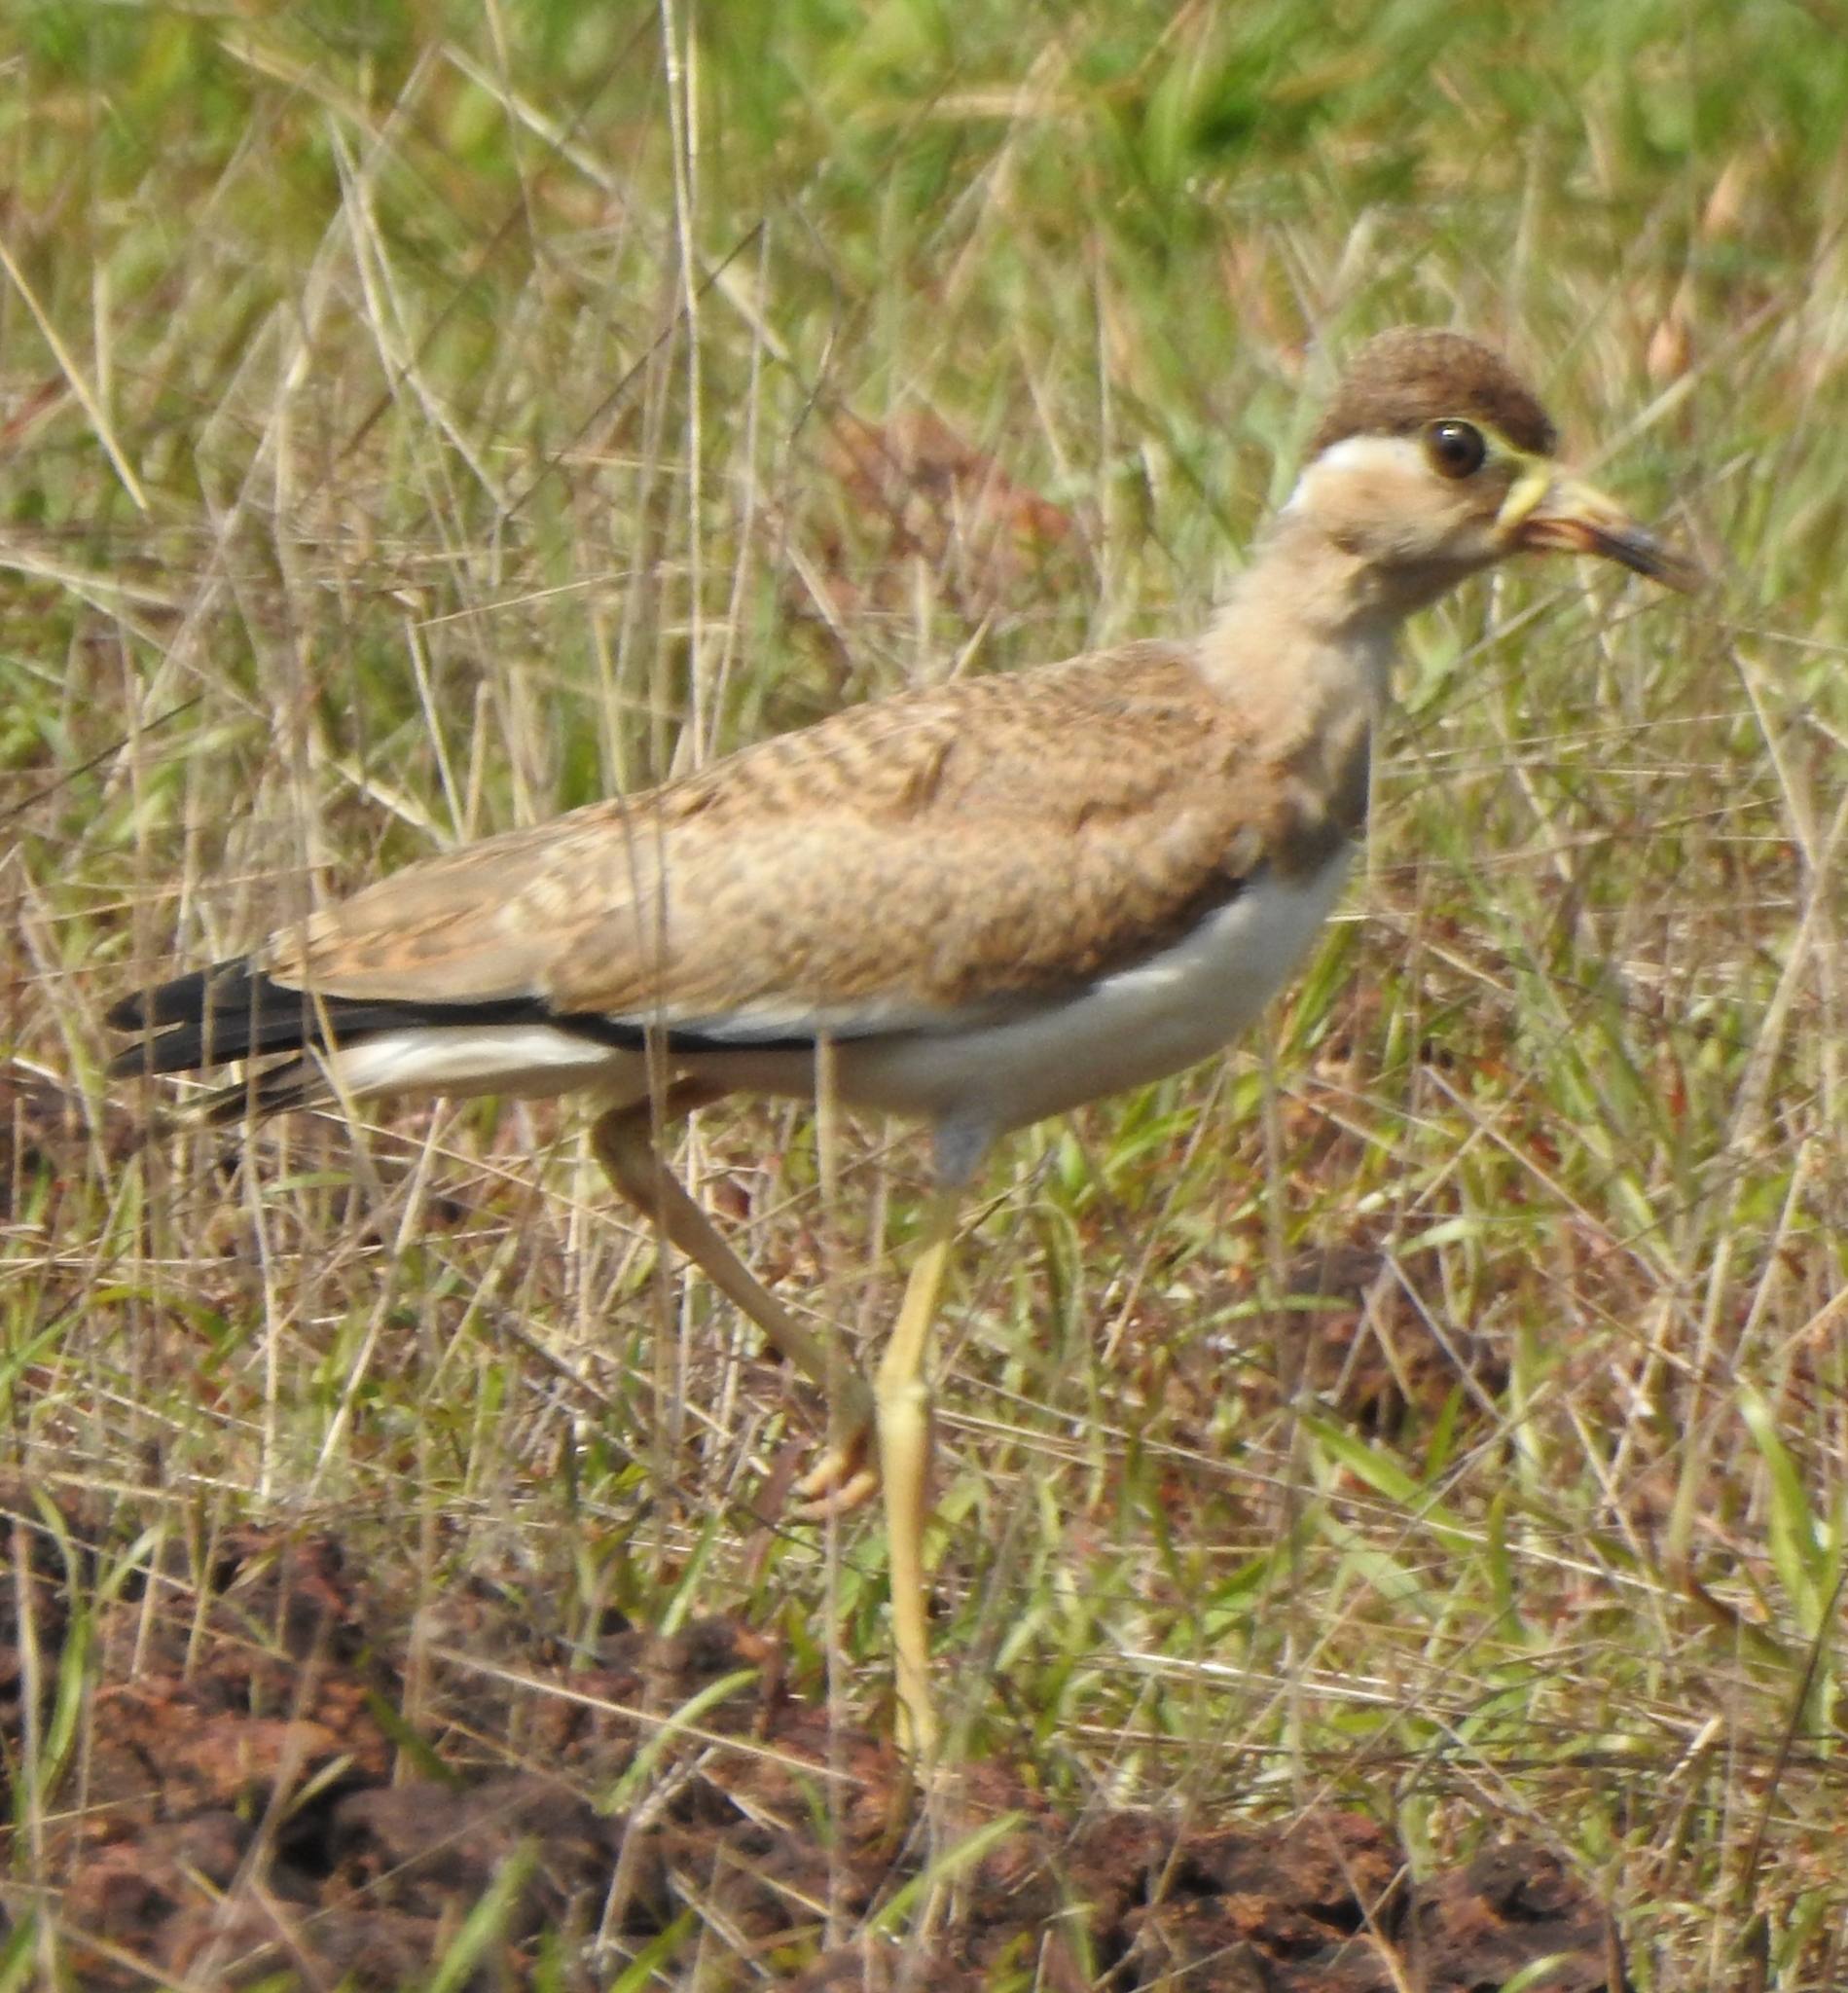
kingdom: Animalia
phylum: Chordata
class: Aves
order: Charadriiformes
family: Charadriidae
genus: Vanellus
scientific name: Vanellus malabaricus
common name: Yellow-wattled lapwing
